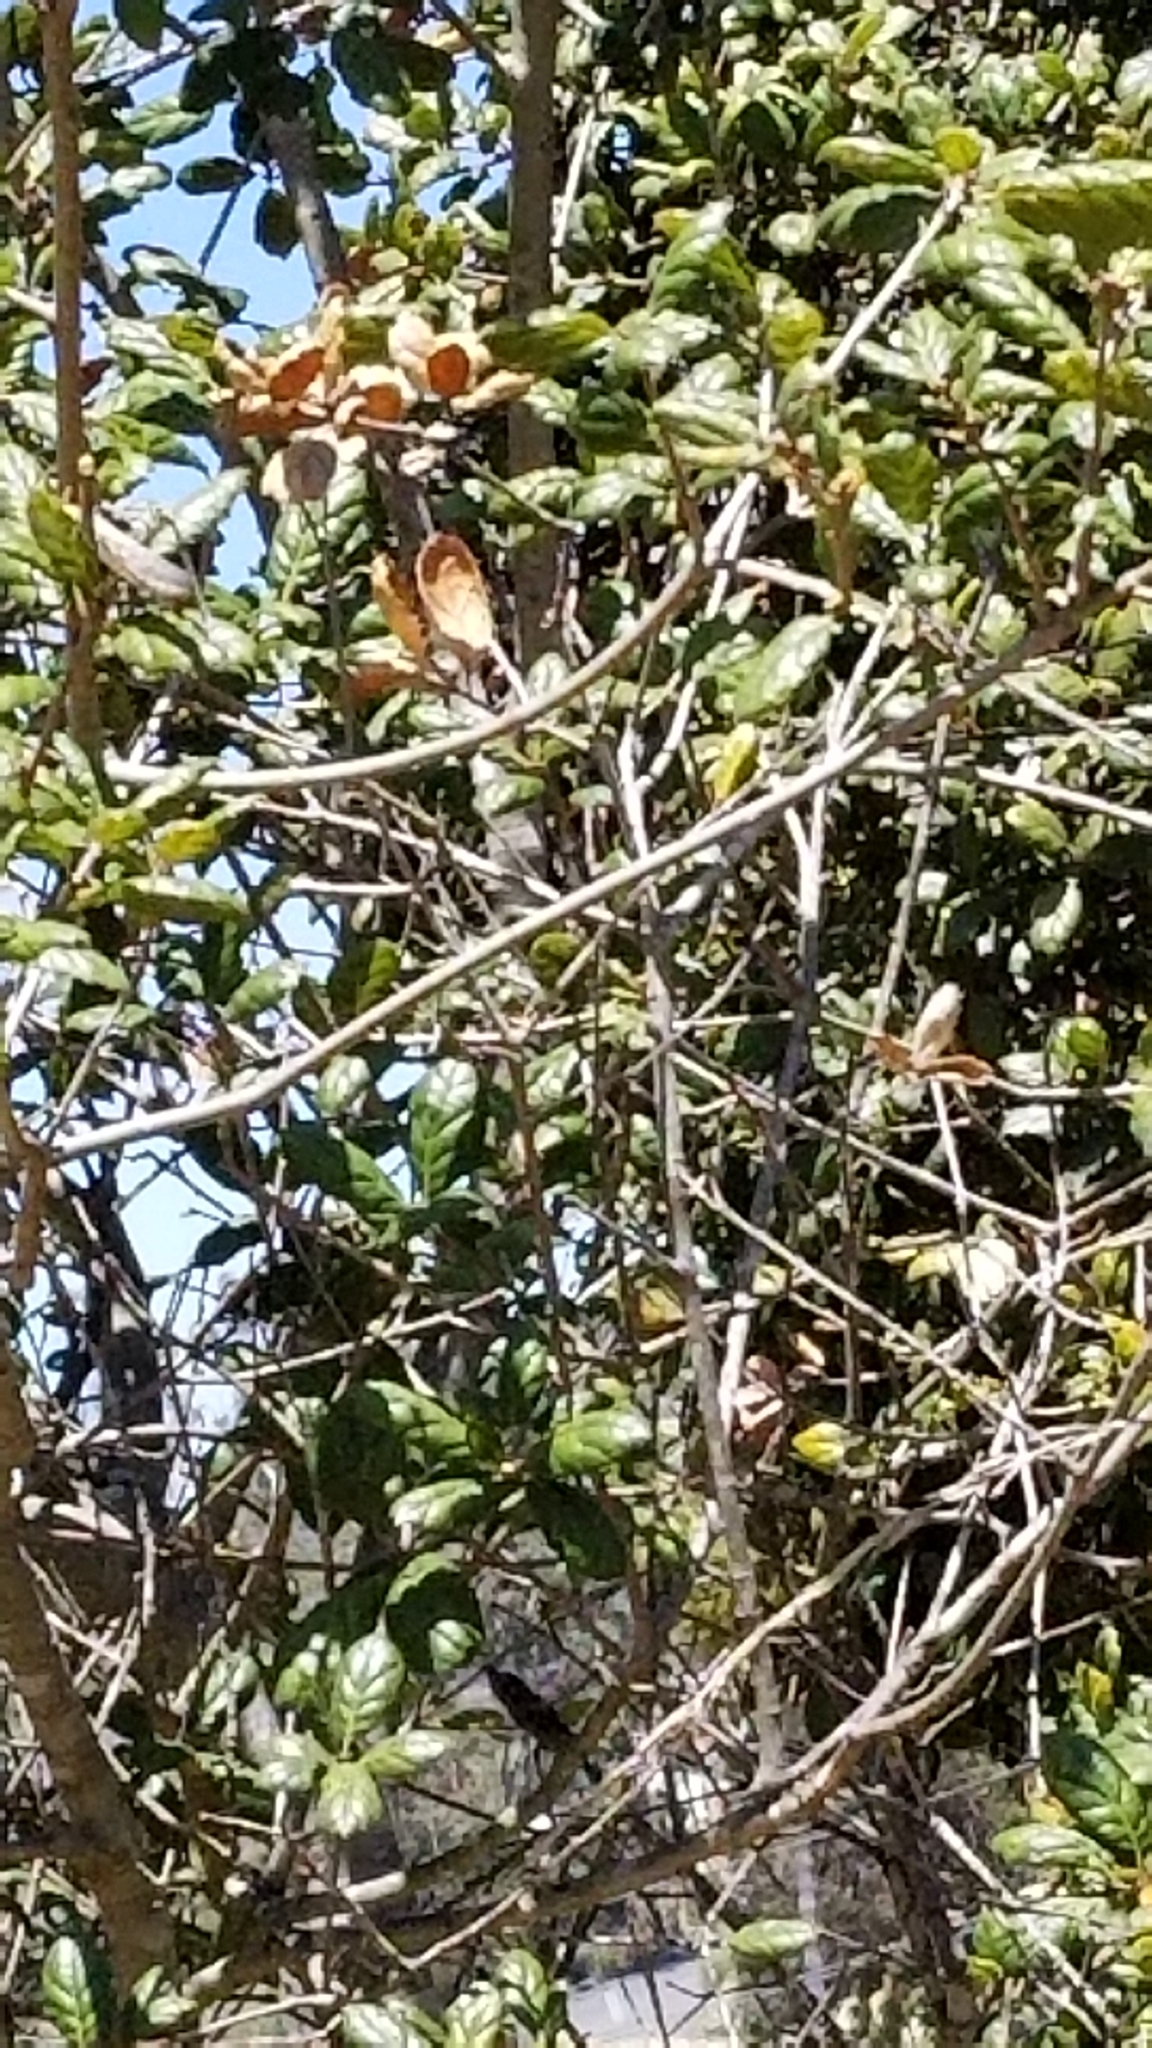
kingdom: Plantae
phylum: Tracheophyta
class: Magnoliopsida
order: Fagales
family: Fagaceae
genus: Quercus
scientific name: Quercus agrifolia
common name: California live oak
